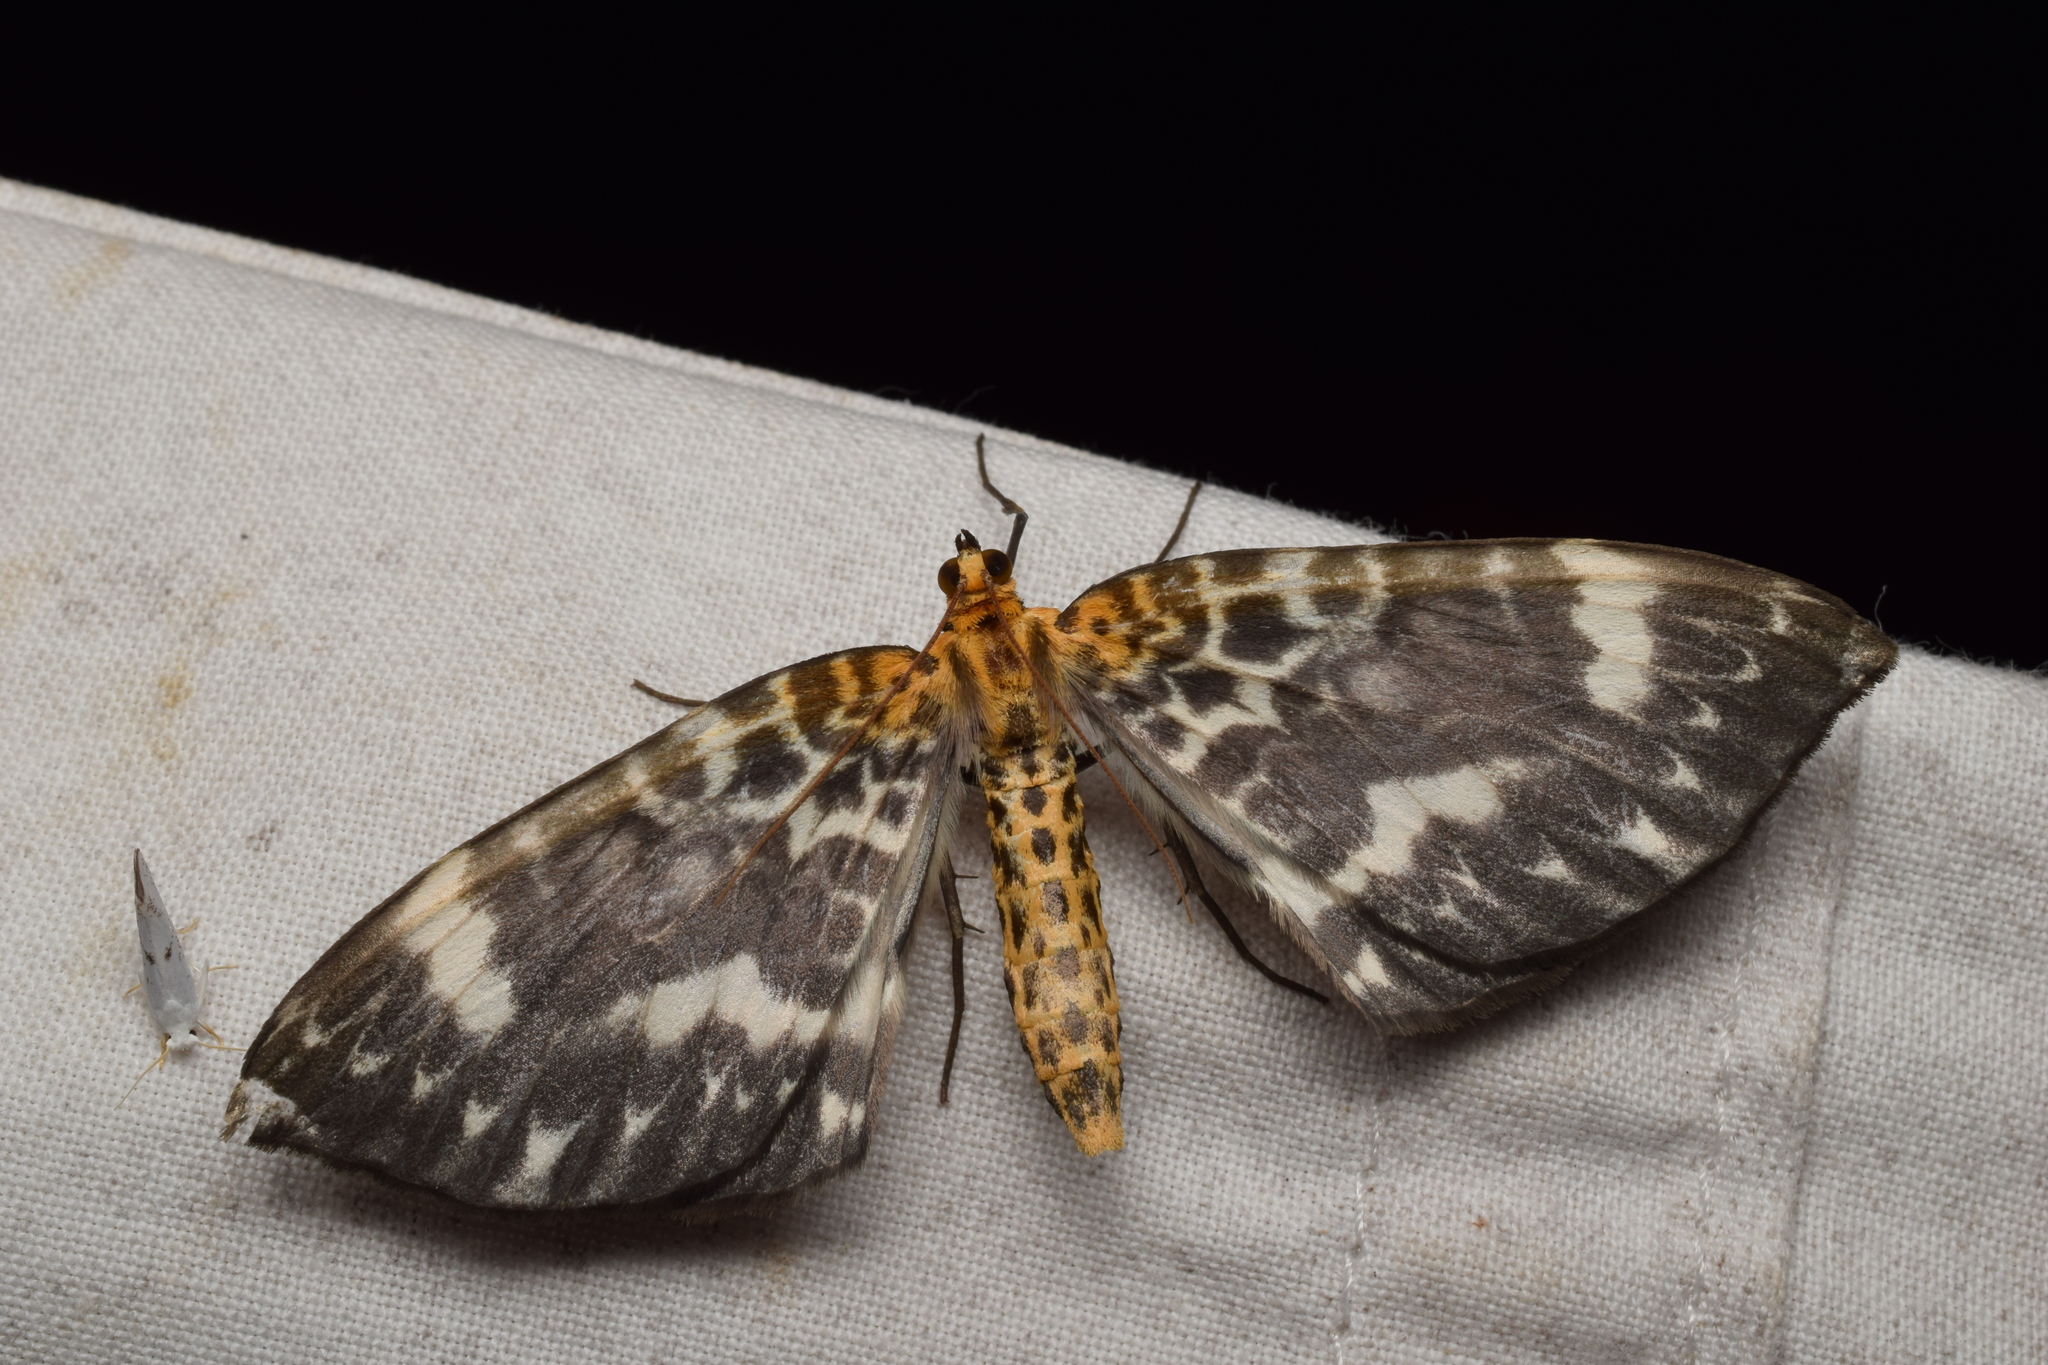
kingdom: Animalia
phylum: Arthropoda
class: Insecta
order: Lepidoptera
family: Geometridae
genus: Gandaritis
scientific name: Gandaritis agnes
